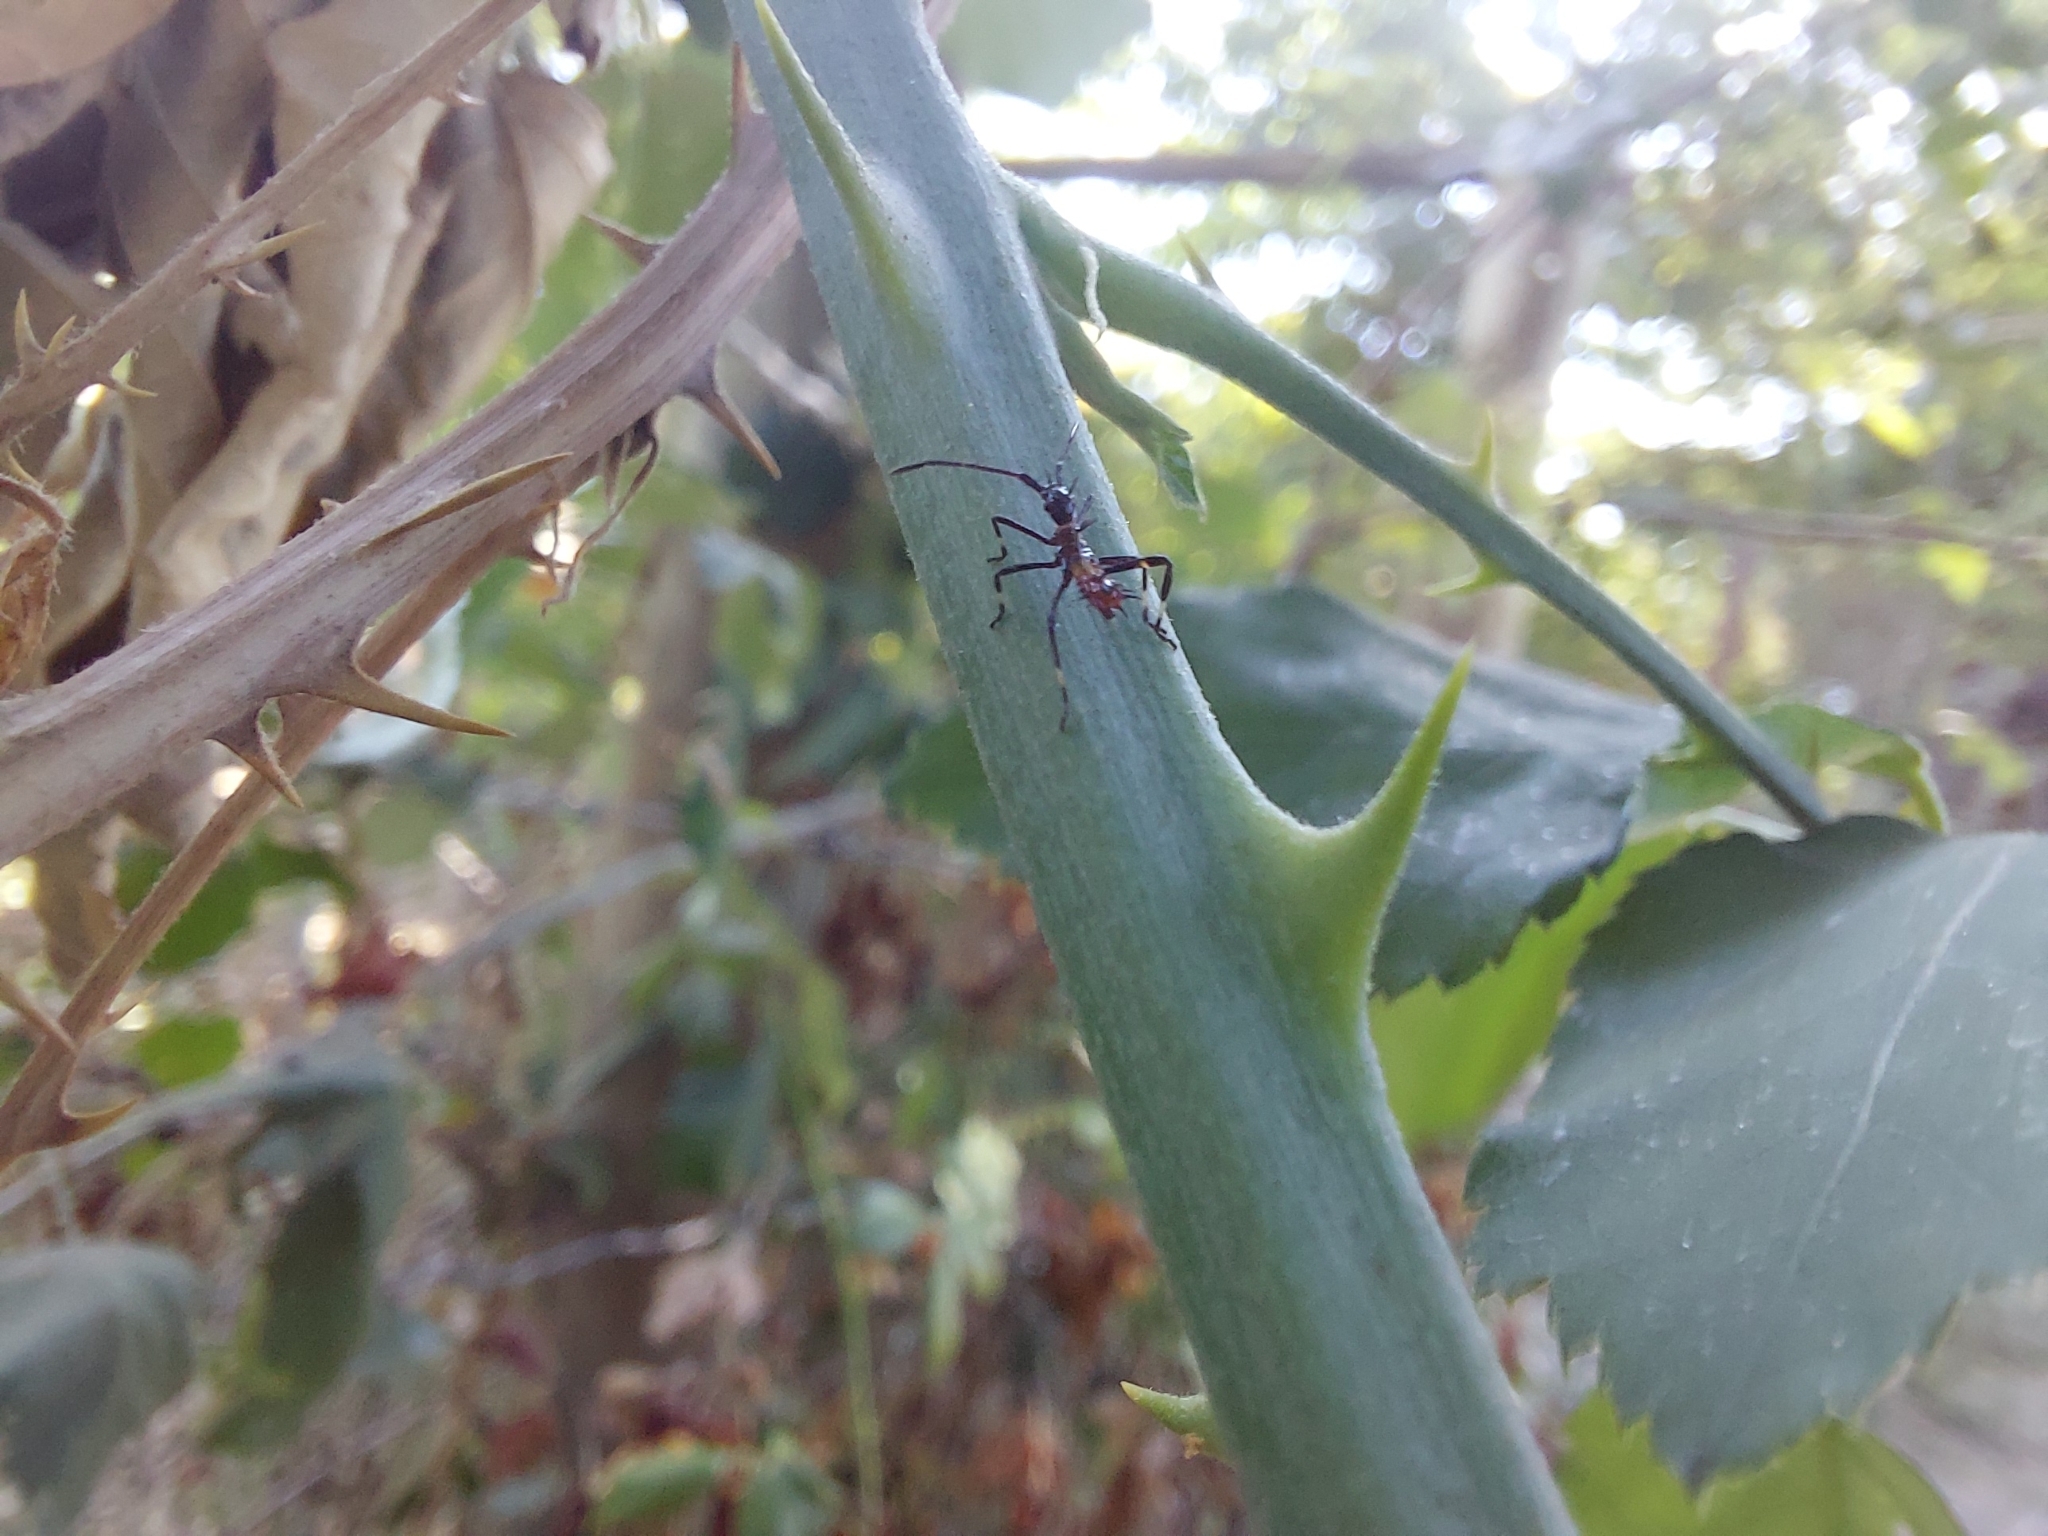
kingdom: Animalia
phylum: Arthropoda
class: Insecta
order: Hemiptera
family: Coreidae
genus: Leptoglossus
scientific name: Leptoglossus chilensis
